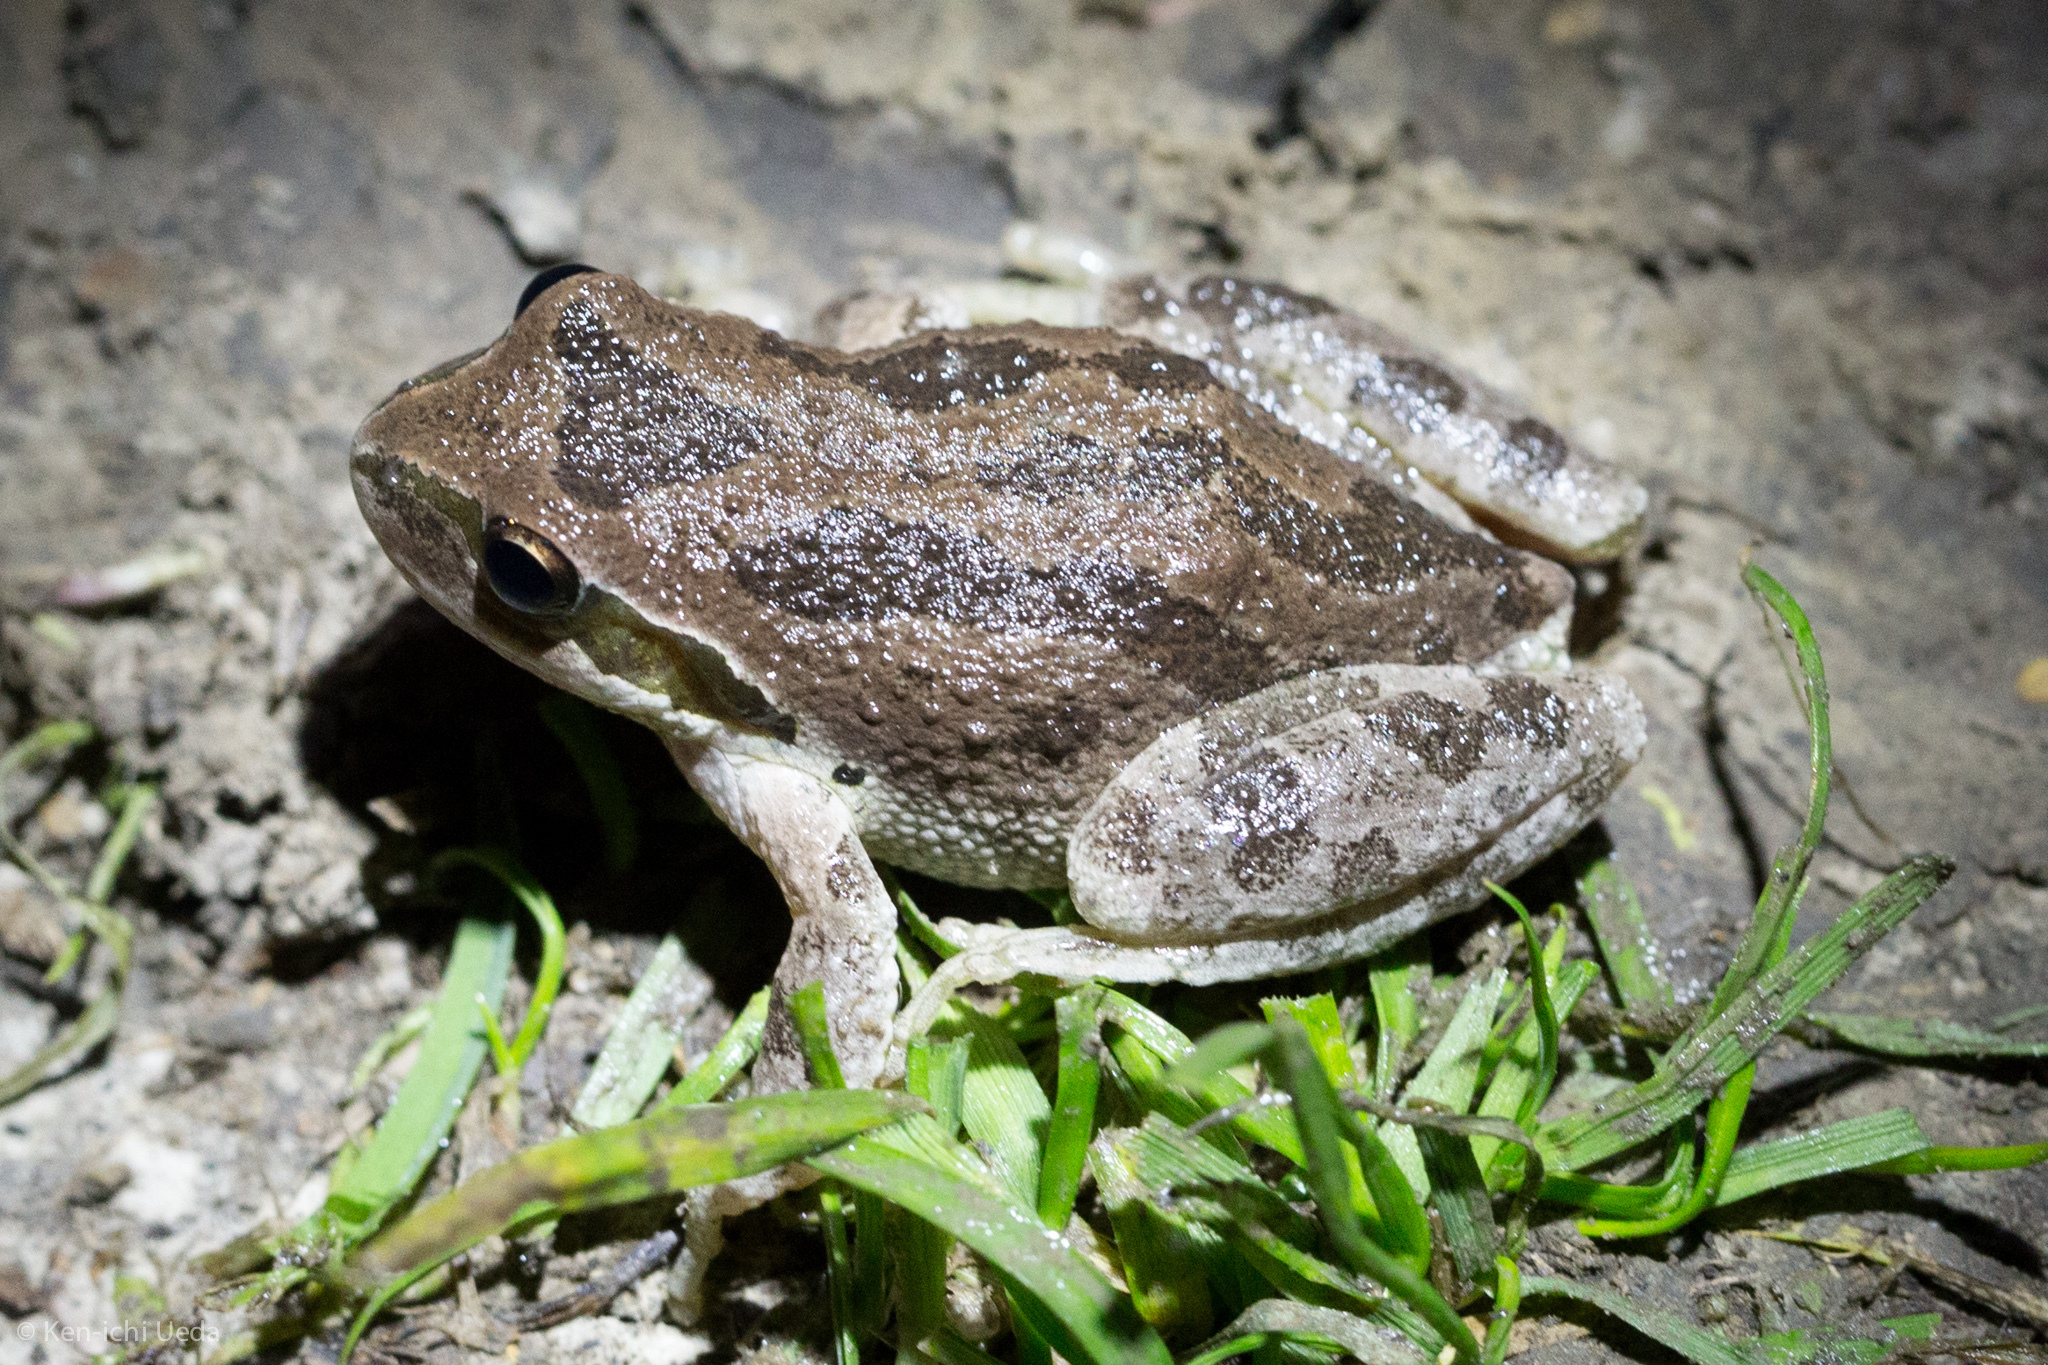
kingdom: Animalia
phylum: Chordata
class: Amphibia
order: Anura
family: Hylidae
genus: Pseudacris
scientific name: Pseudacris regilla
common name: Pacific chorus frog
